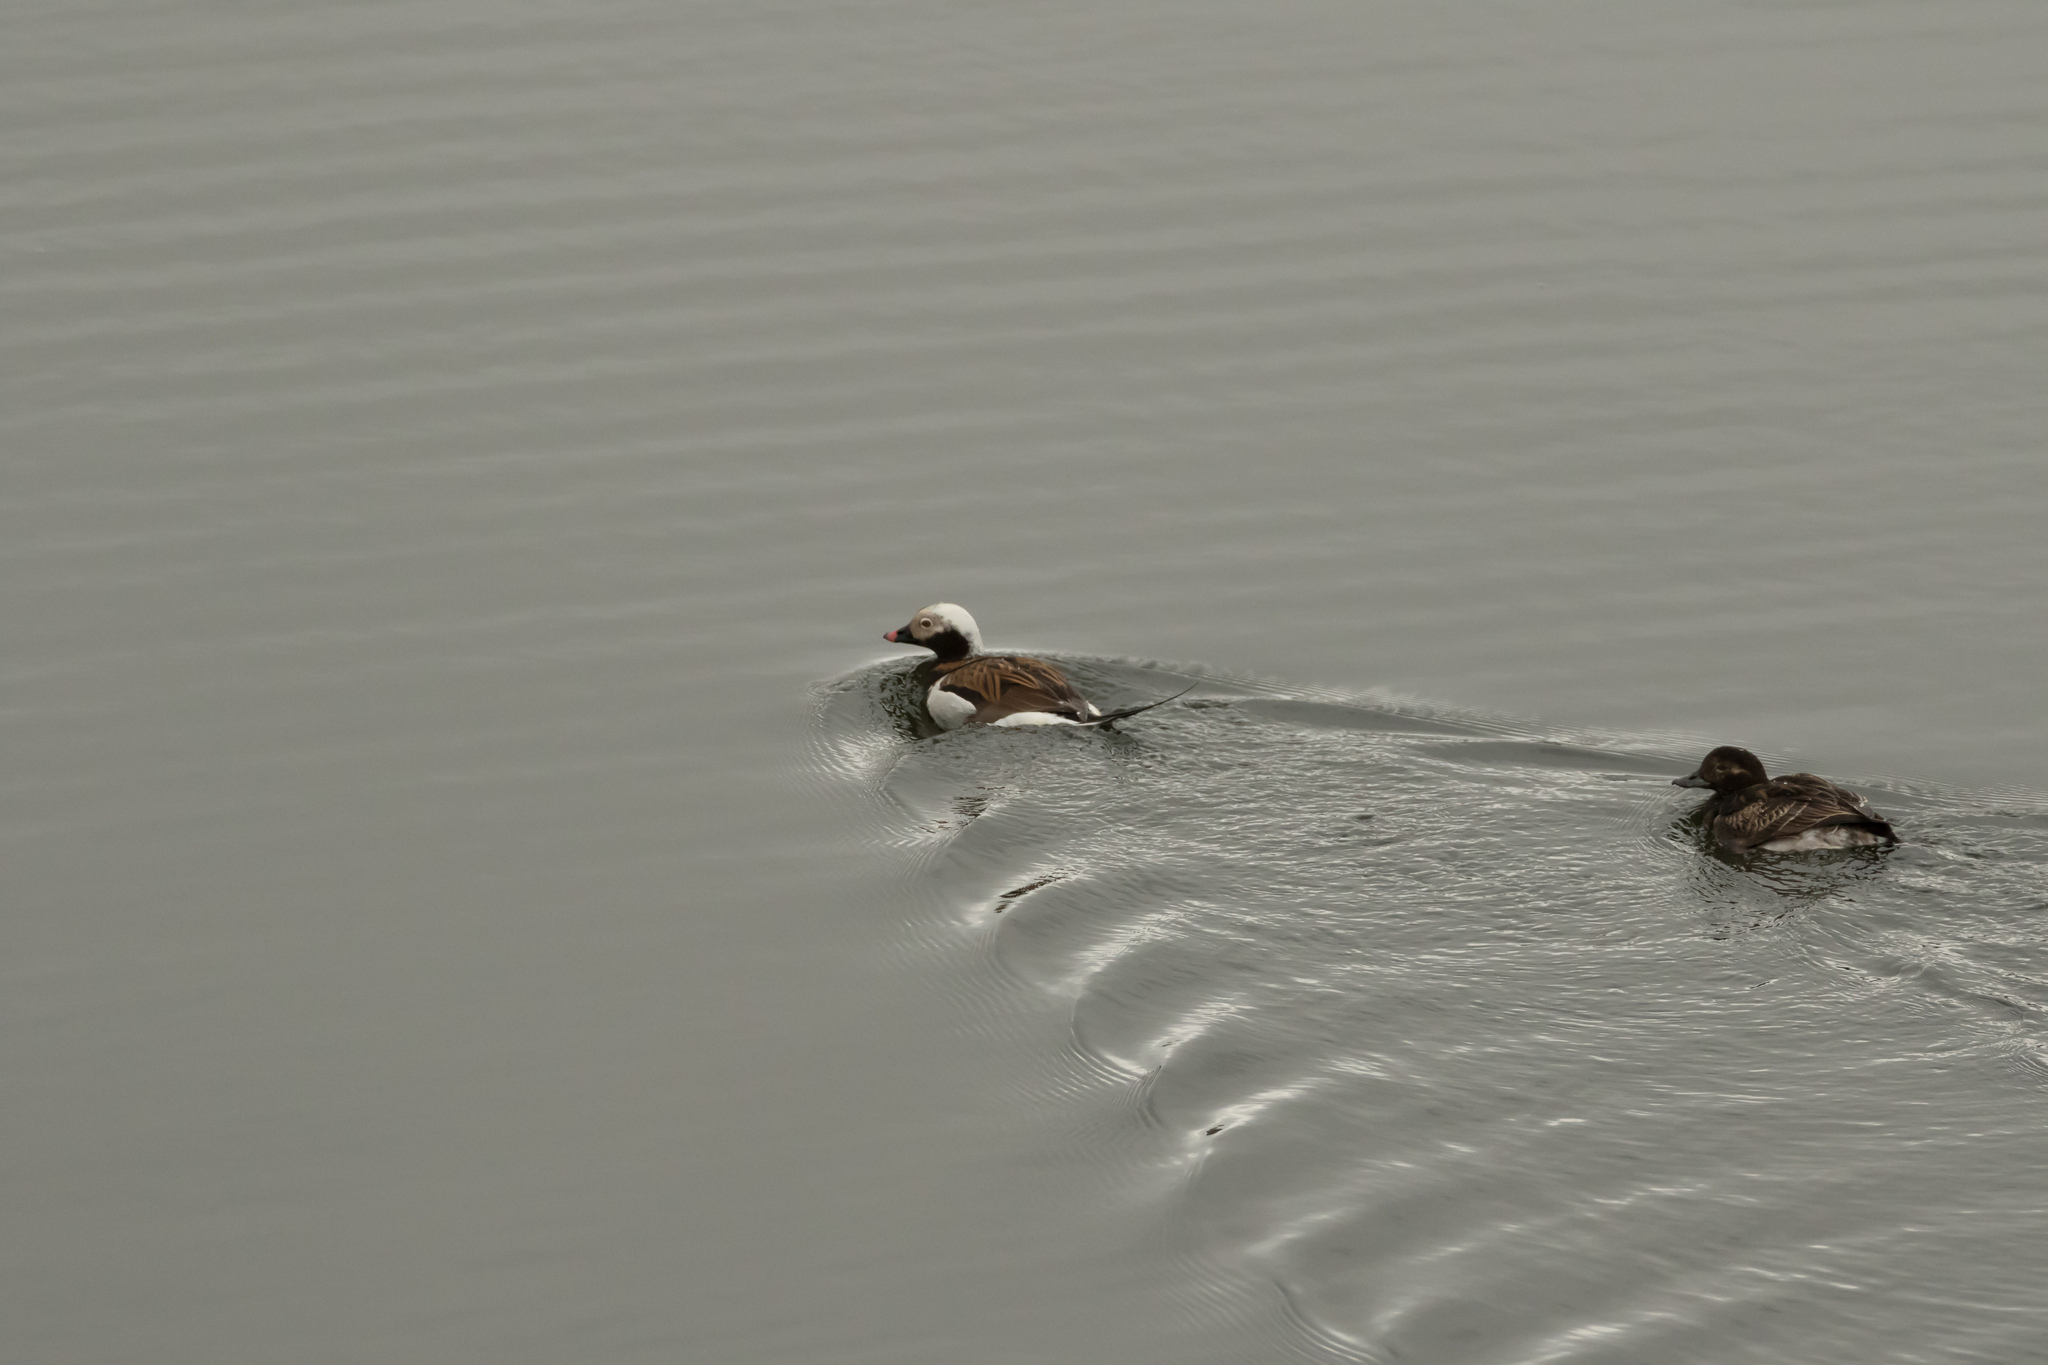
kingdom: Animalia
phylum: Chordata
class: Aves
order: Anseriformes
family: Anatidae
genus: Clangula
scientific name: Clangula hyemalis
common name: Long-tailed duck
